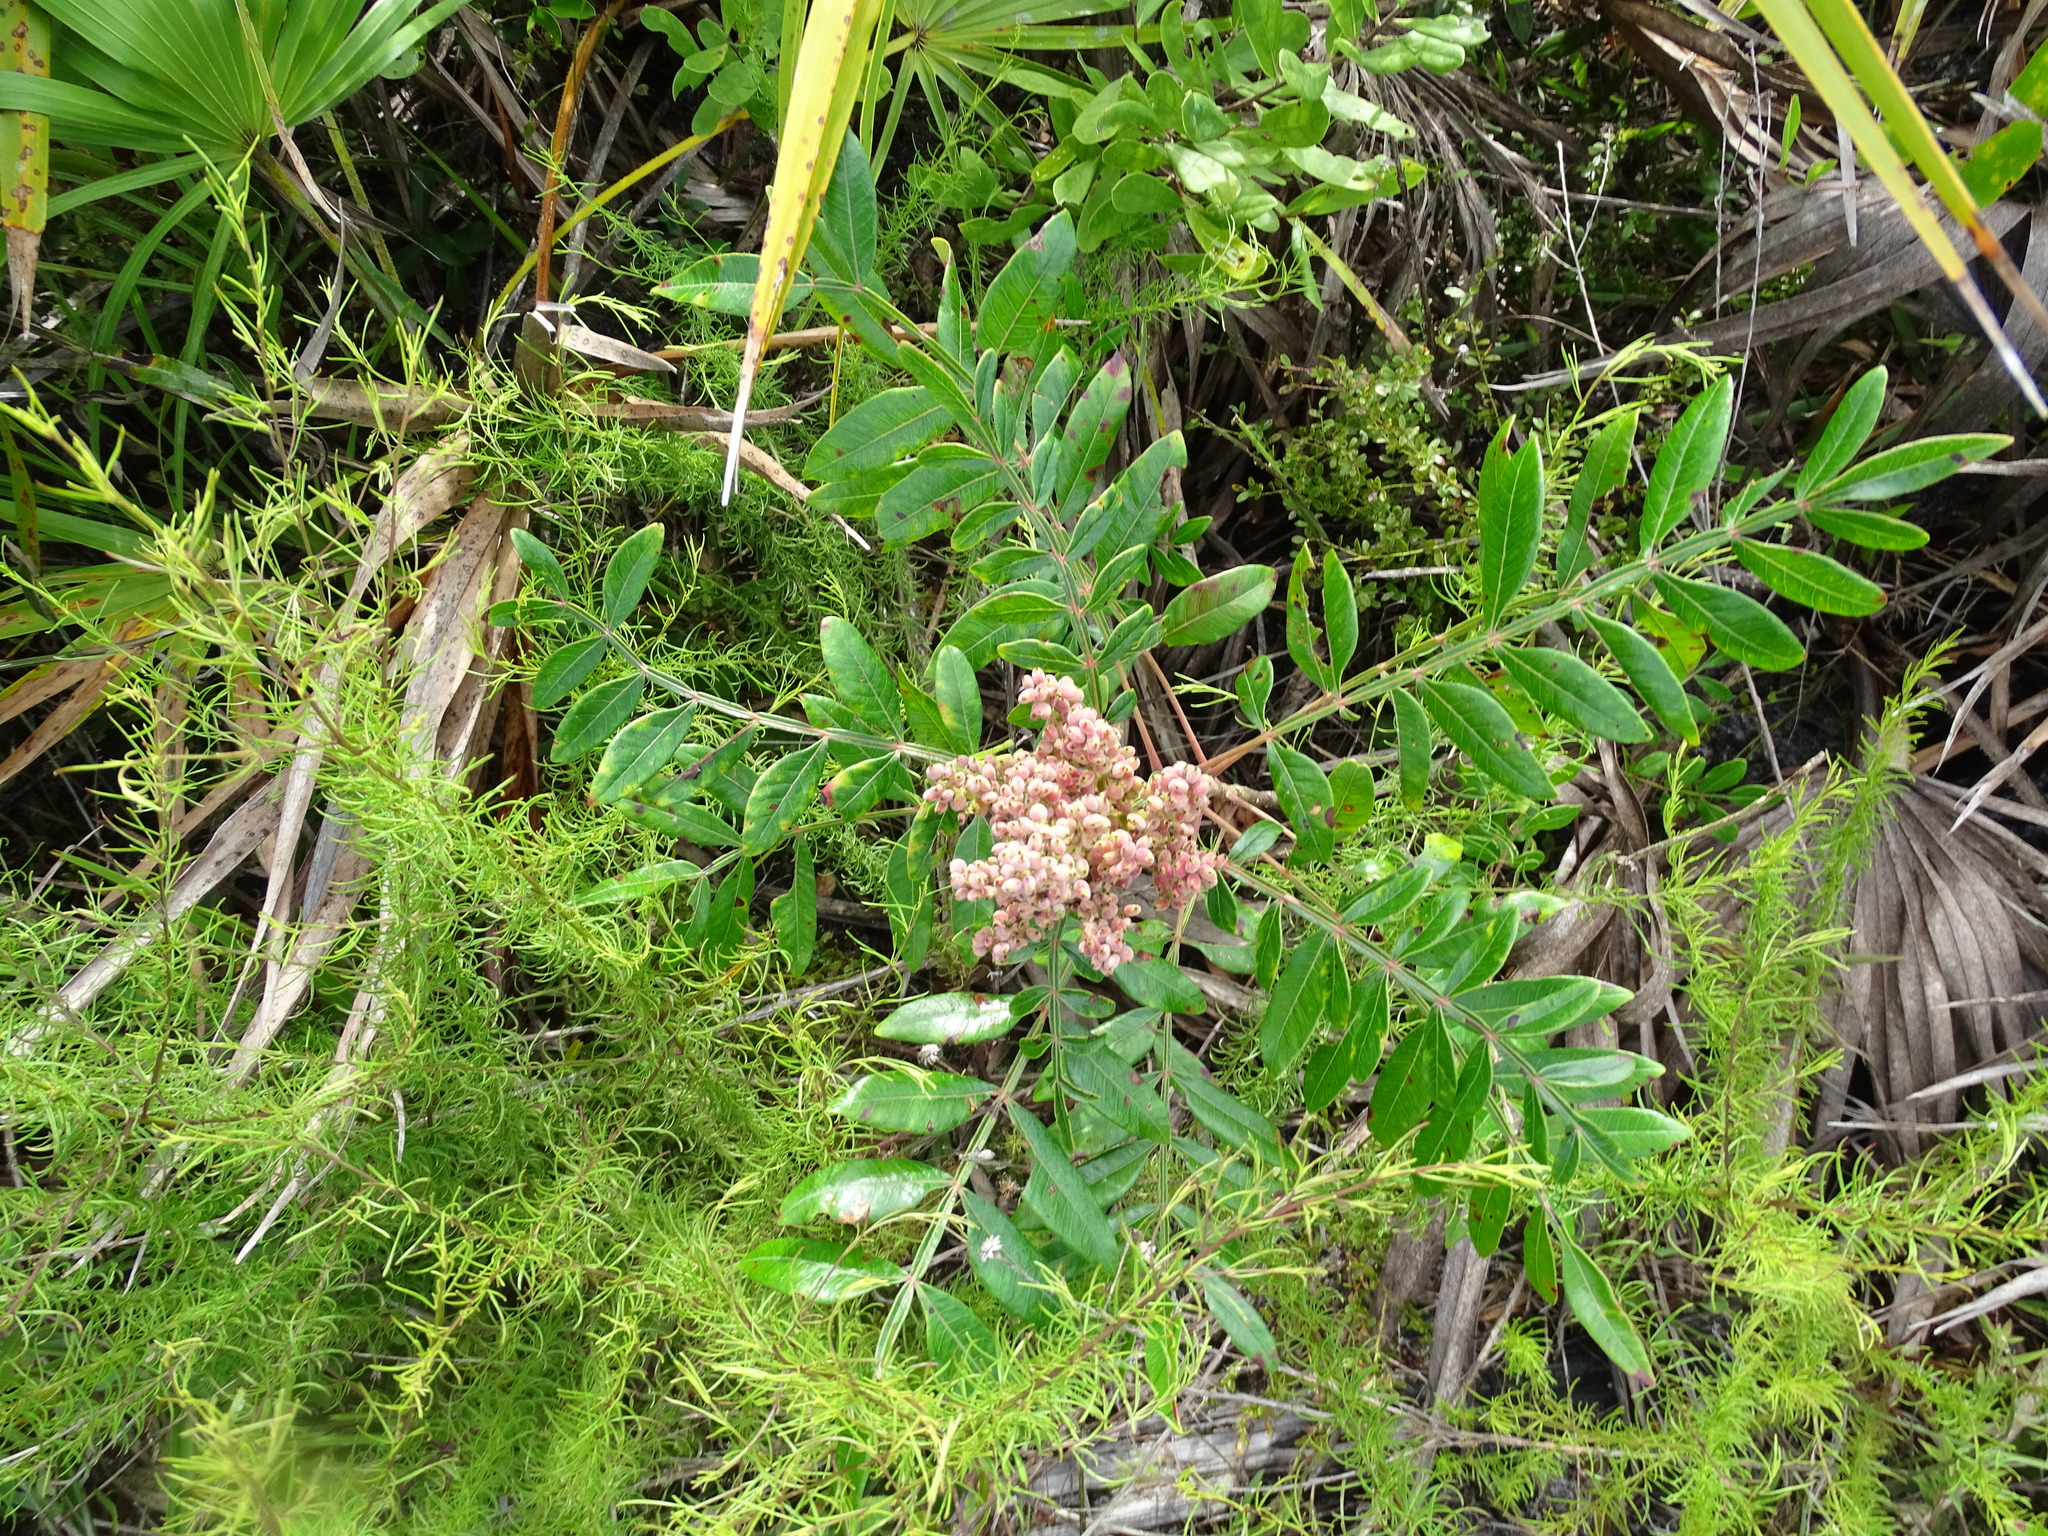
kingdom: Plantae
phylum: Tracheophyta
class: Magnoliopsida
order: Sapindales
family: Anacardiaceae
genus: Rhus
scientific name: Rhus copallina
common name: Shining sumac
